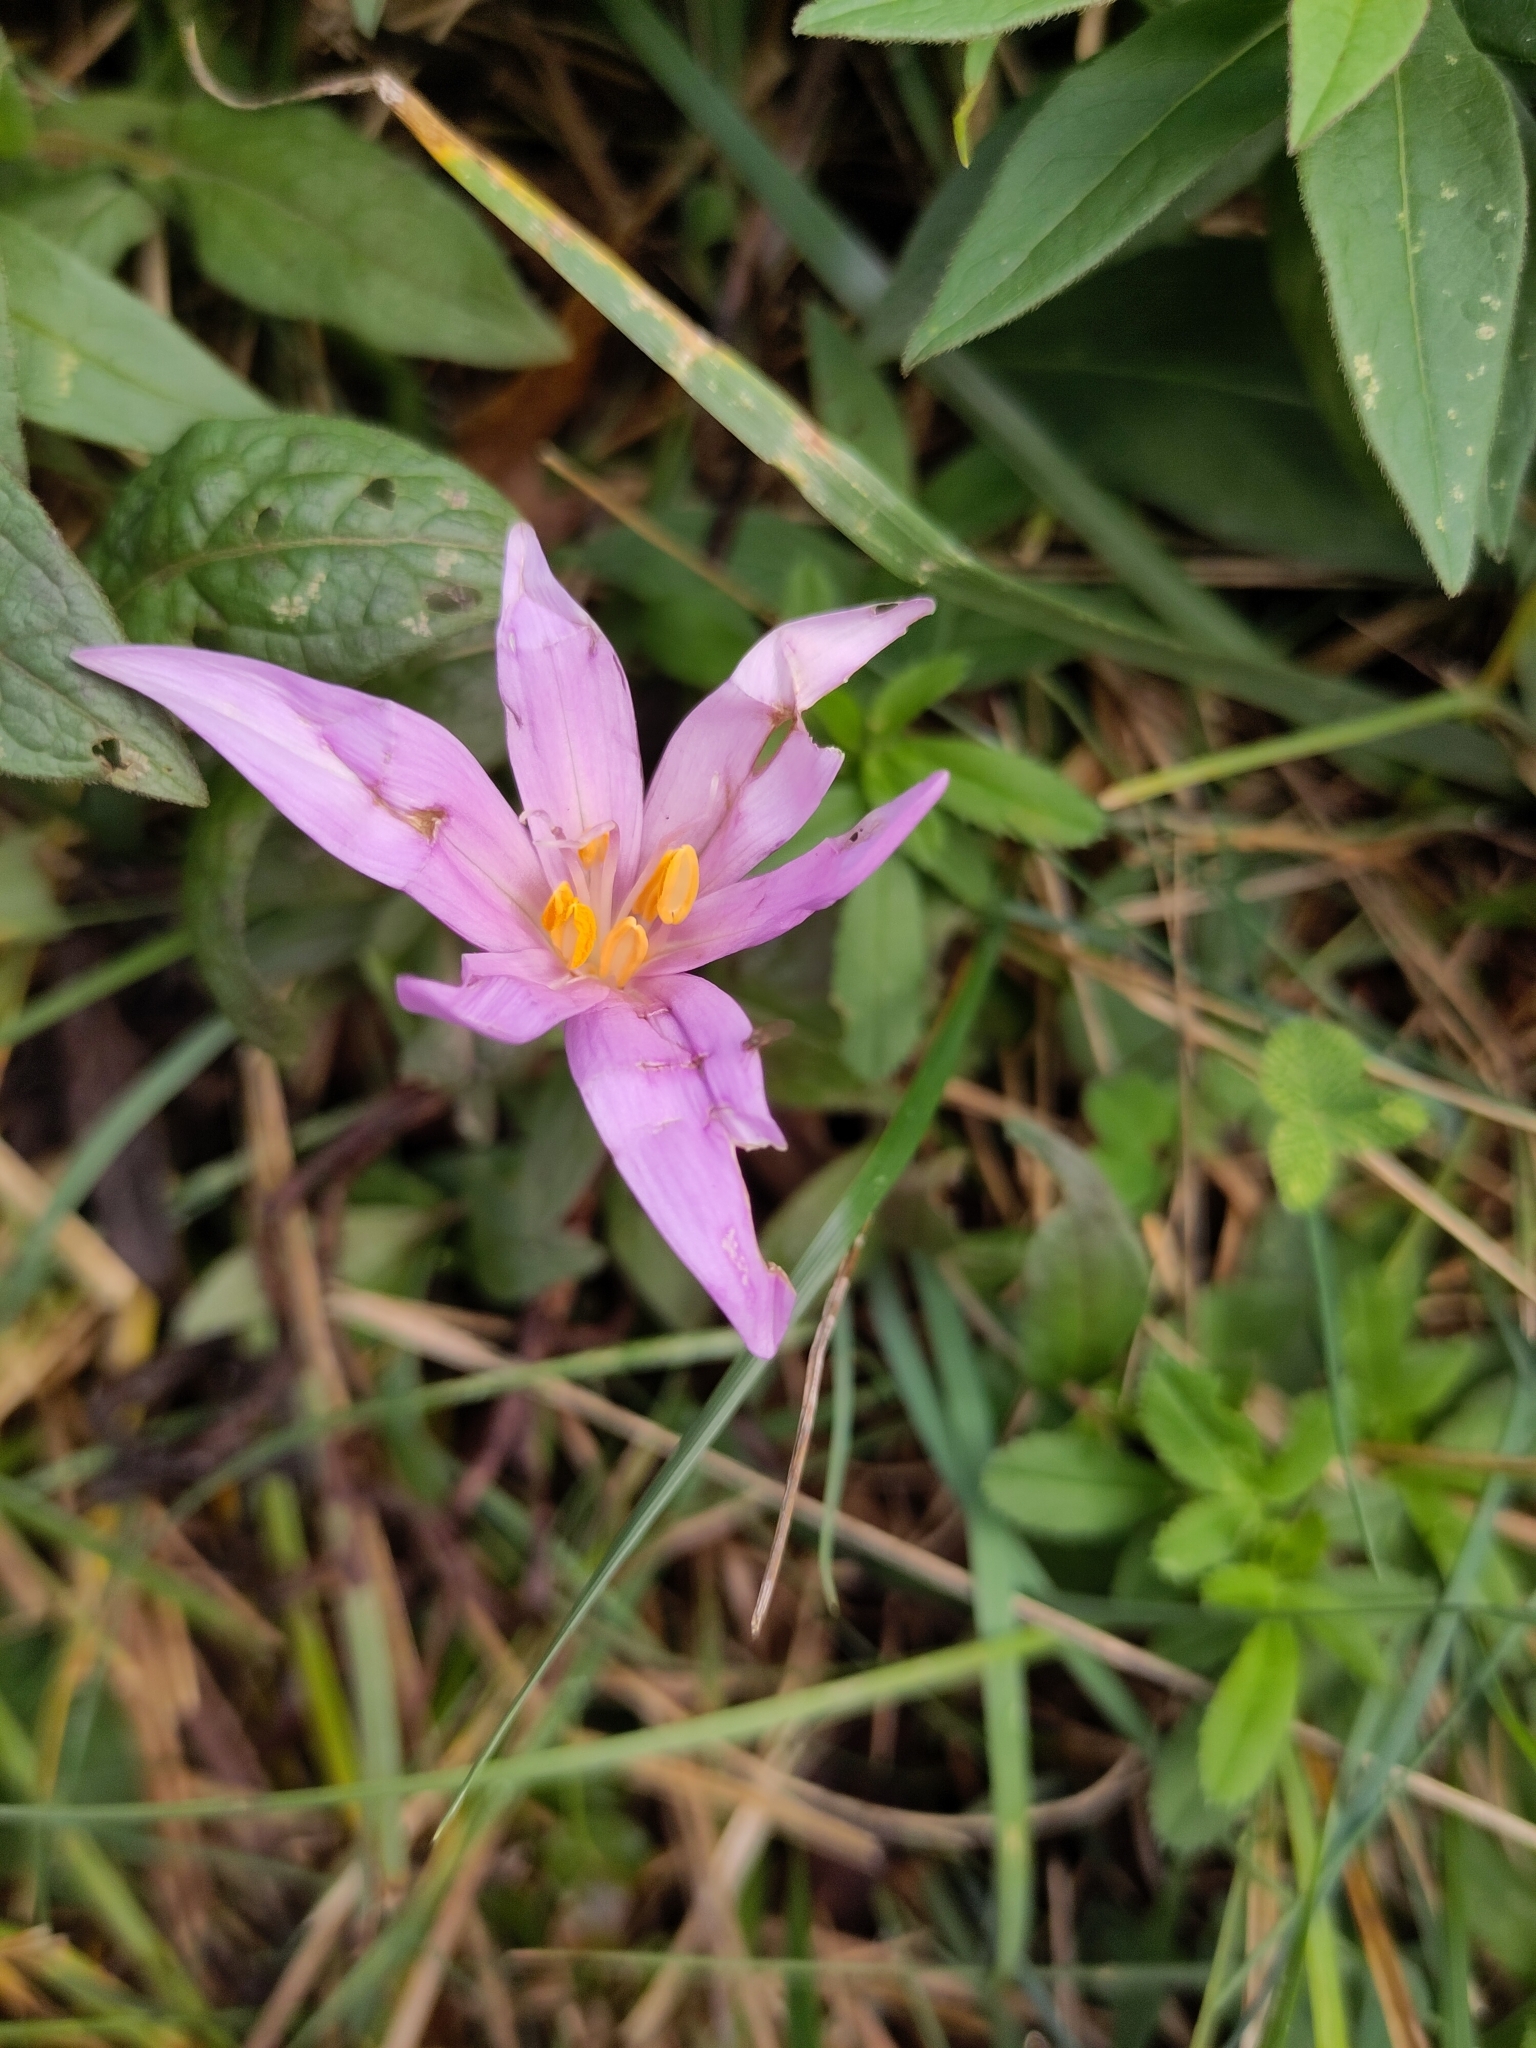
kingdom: Plantae
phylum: Tracheophyta
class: Liliopsida
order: Liliales
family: Colchicaceae
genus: Colchicum
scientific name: Colchicum autumnale
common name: Autumn crocus
